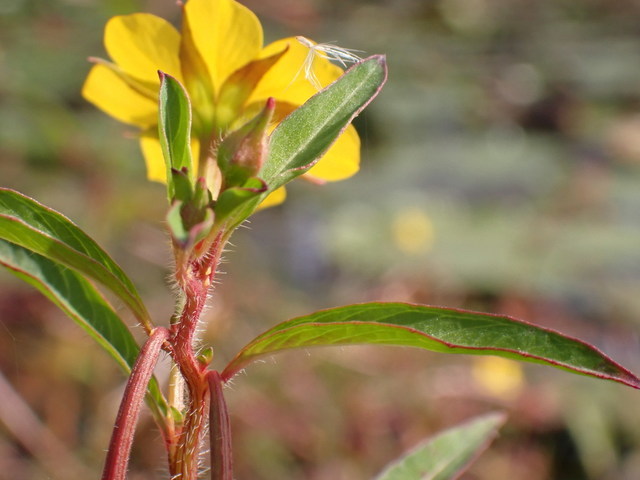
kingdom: Plantae
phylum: Tracheophyta
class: Magnoliopsida
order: Myrtales
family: Onagraceae
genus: Ludwigia
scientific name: Ludwigia leptocarpa
